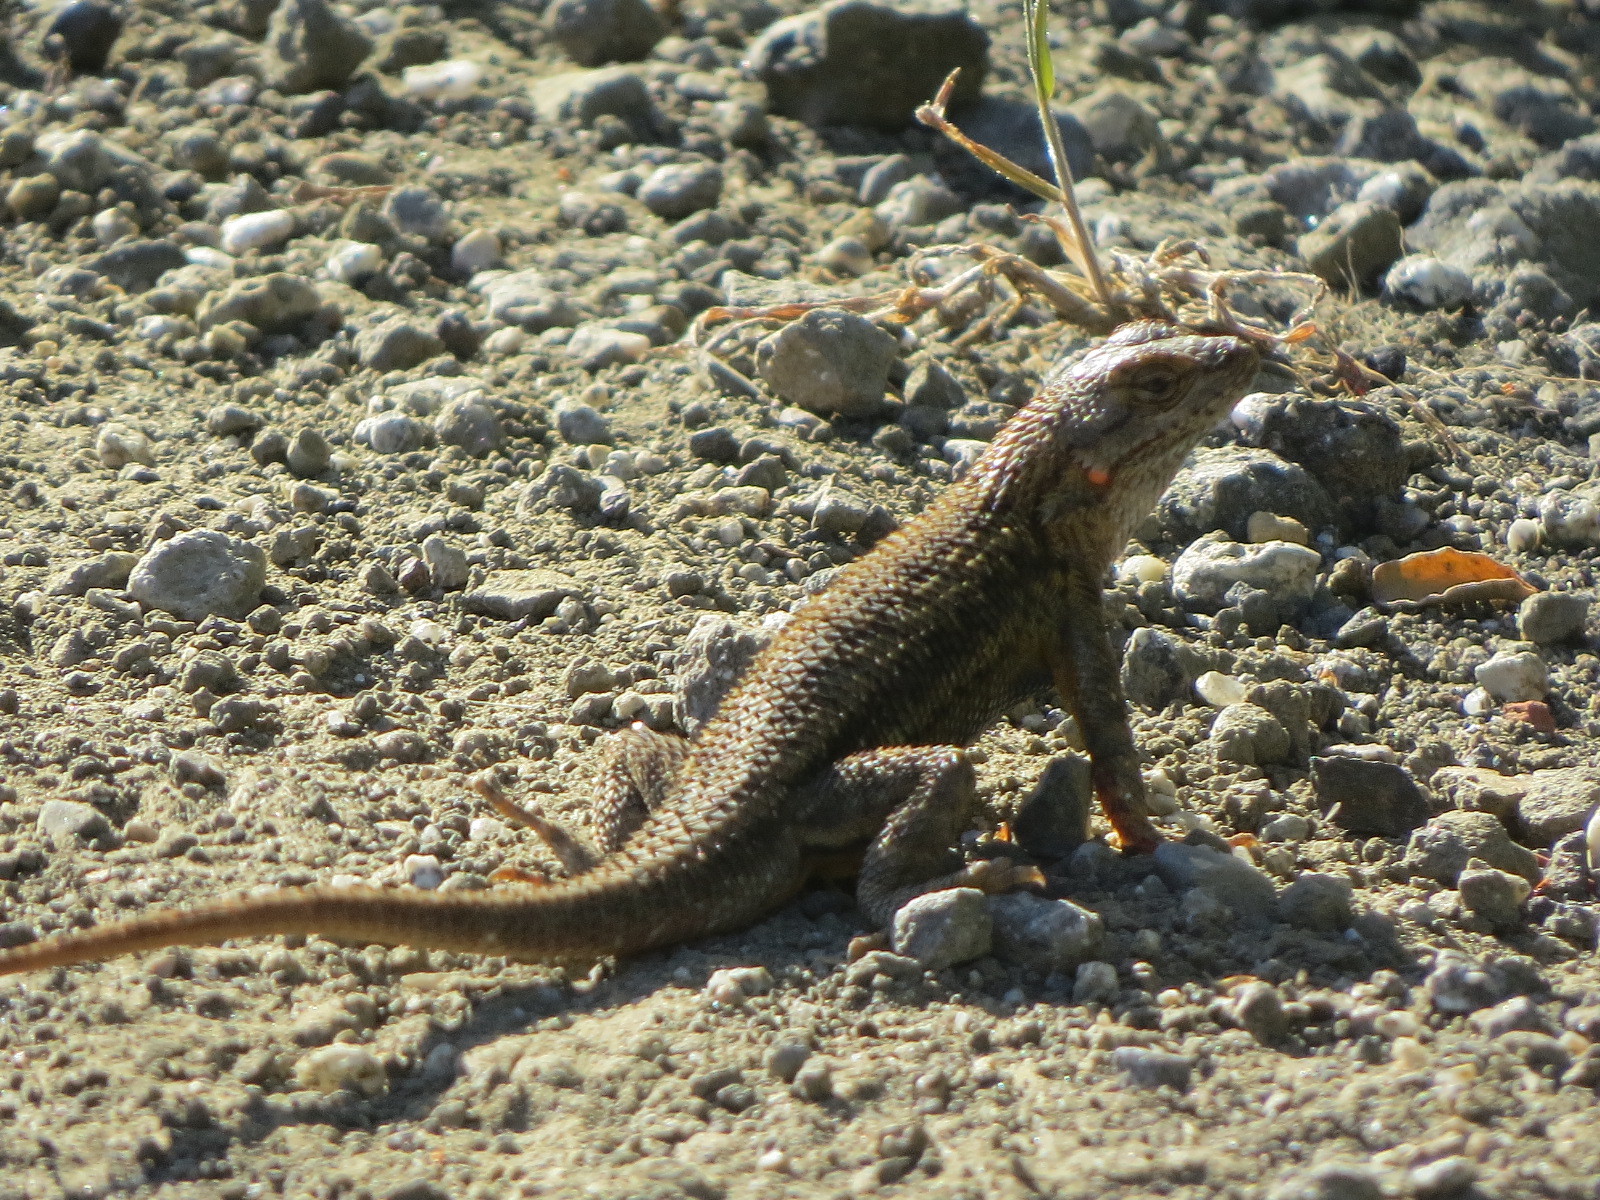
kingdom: Animalia
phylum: Chordata
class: Squamata
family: Phrynosomatidae
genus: Sceloporus
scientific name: Sceloporus occidentalis
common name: Western fence lizard
